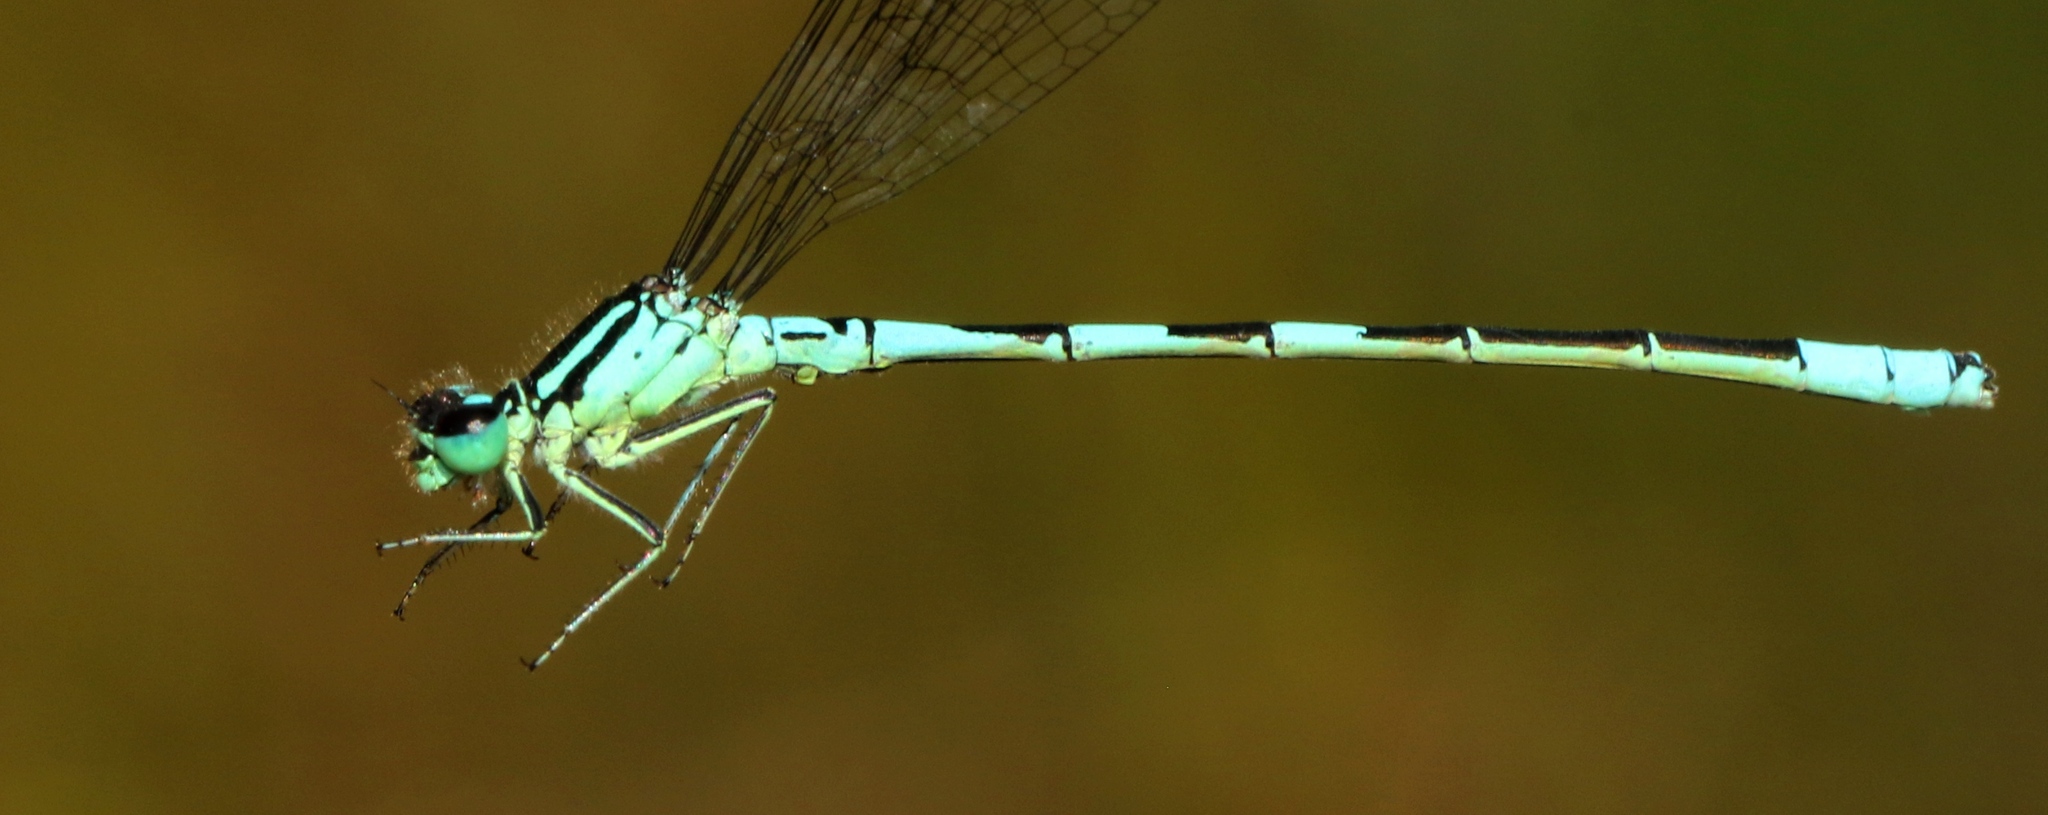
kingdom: Animalia
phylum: Arthropoda
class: Insecta
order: Odonata
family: Coenagrionidae
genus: Coenagrion
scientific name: Coenagrion resolutum
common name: Taiga bluet
